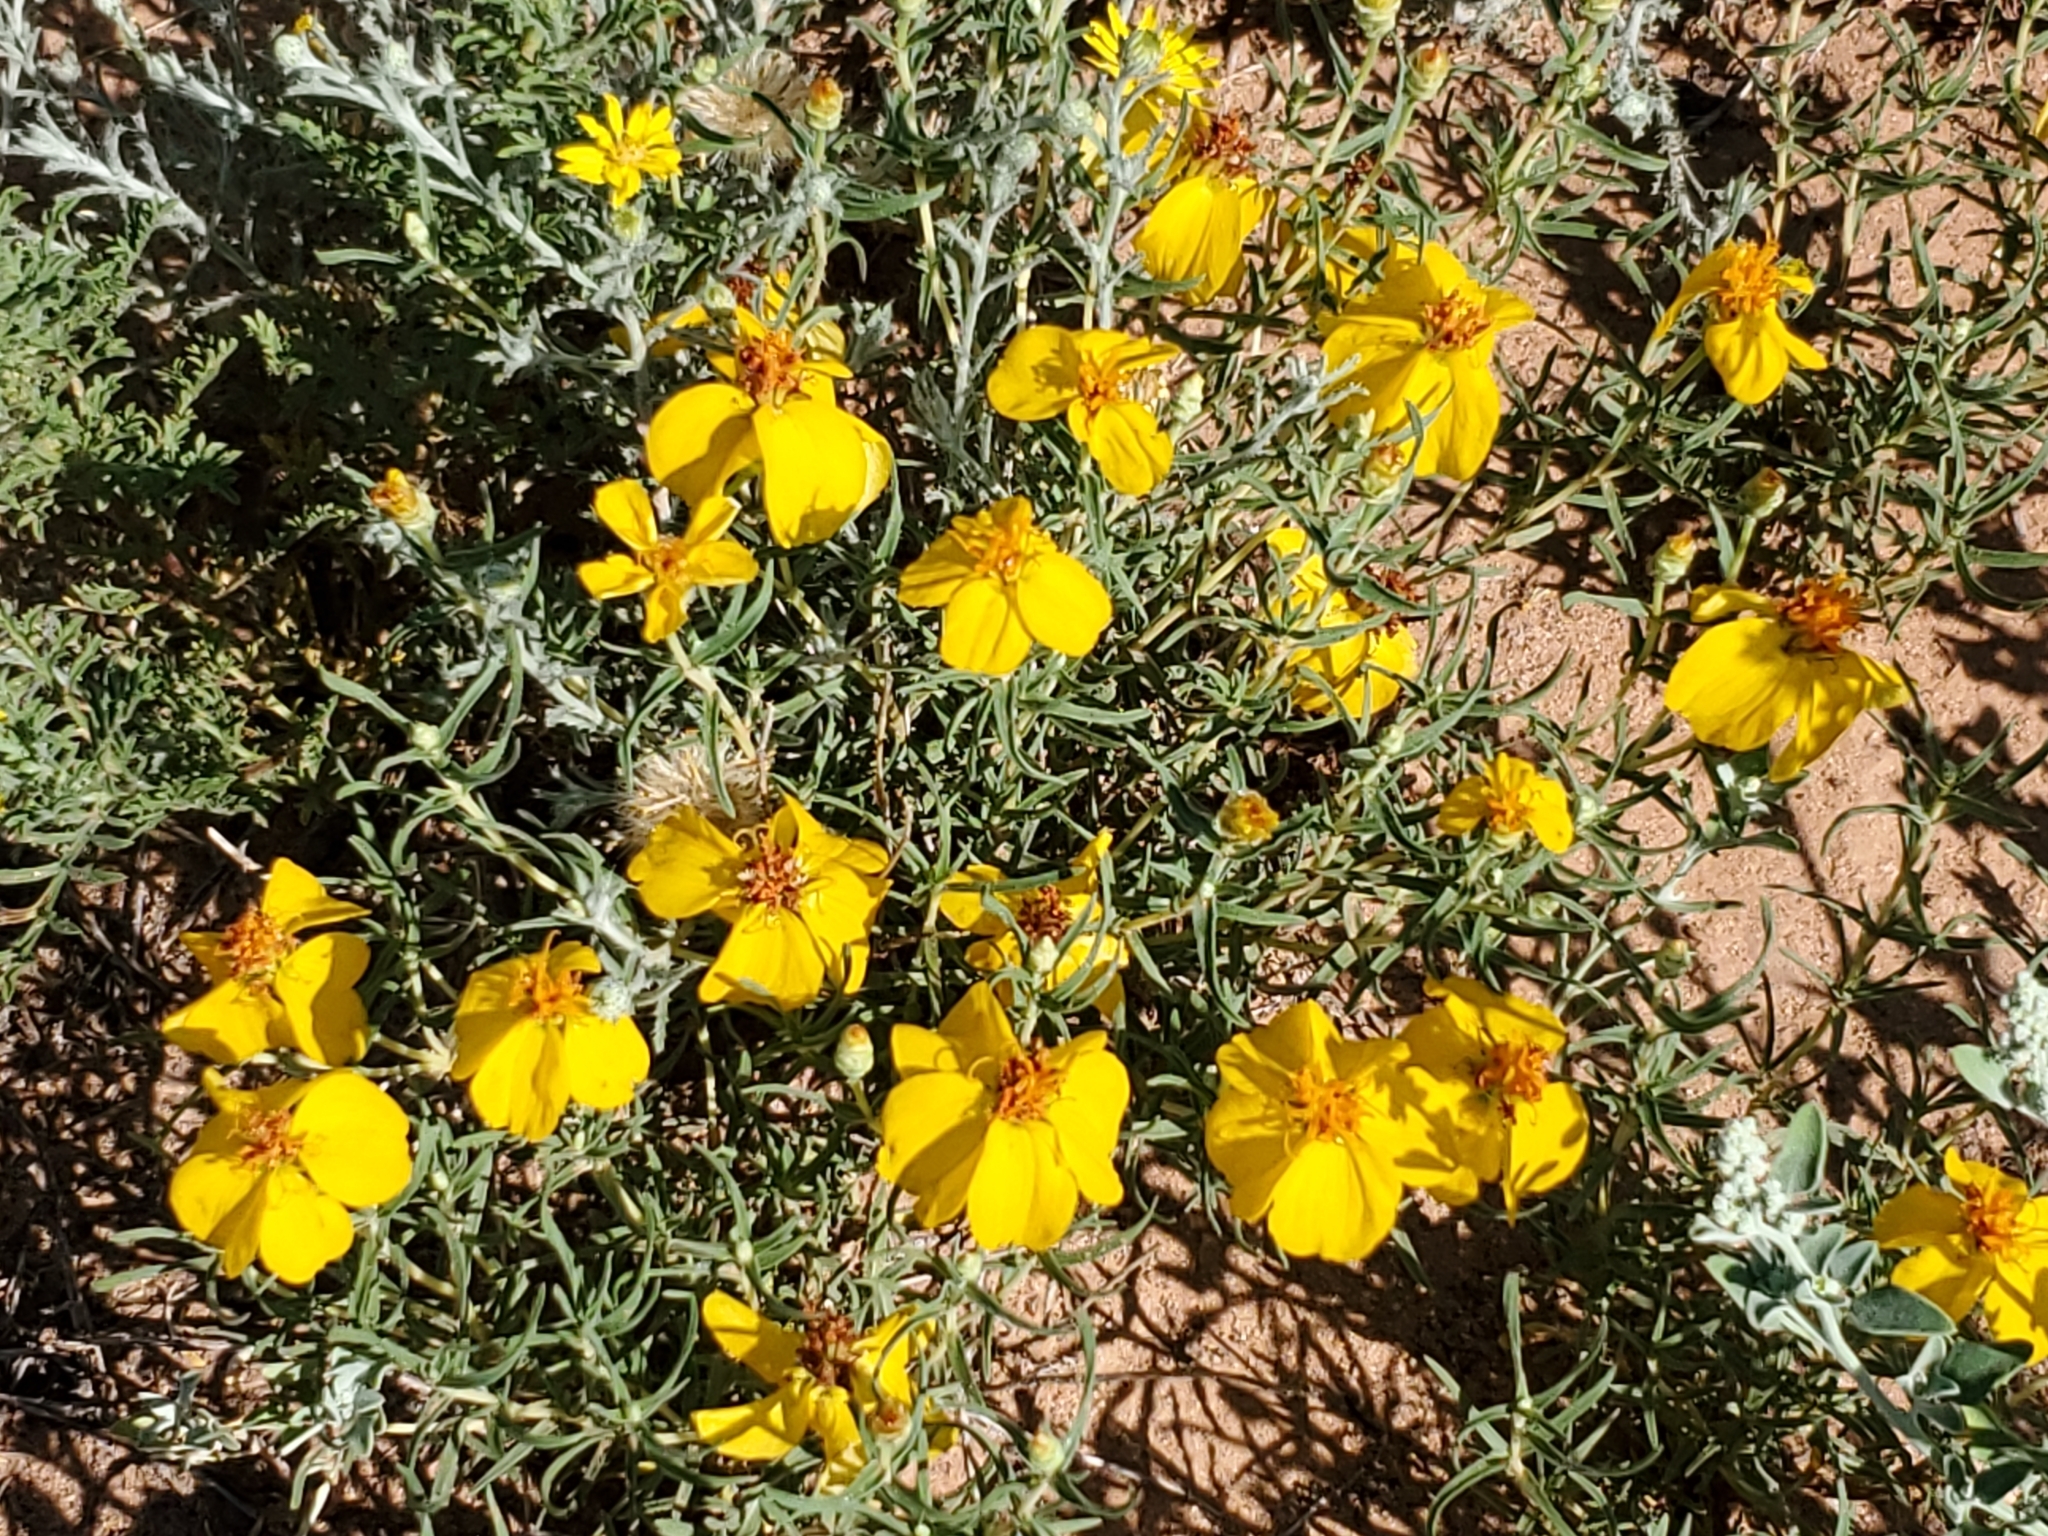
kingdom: Plantae
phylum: Tracheophyta
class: Magnoliopsida
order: Asterales
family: Asteraceae
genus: Zinnia
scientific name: Zinnia grandiflora
